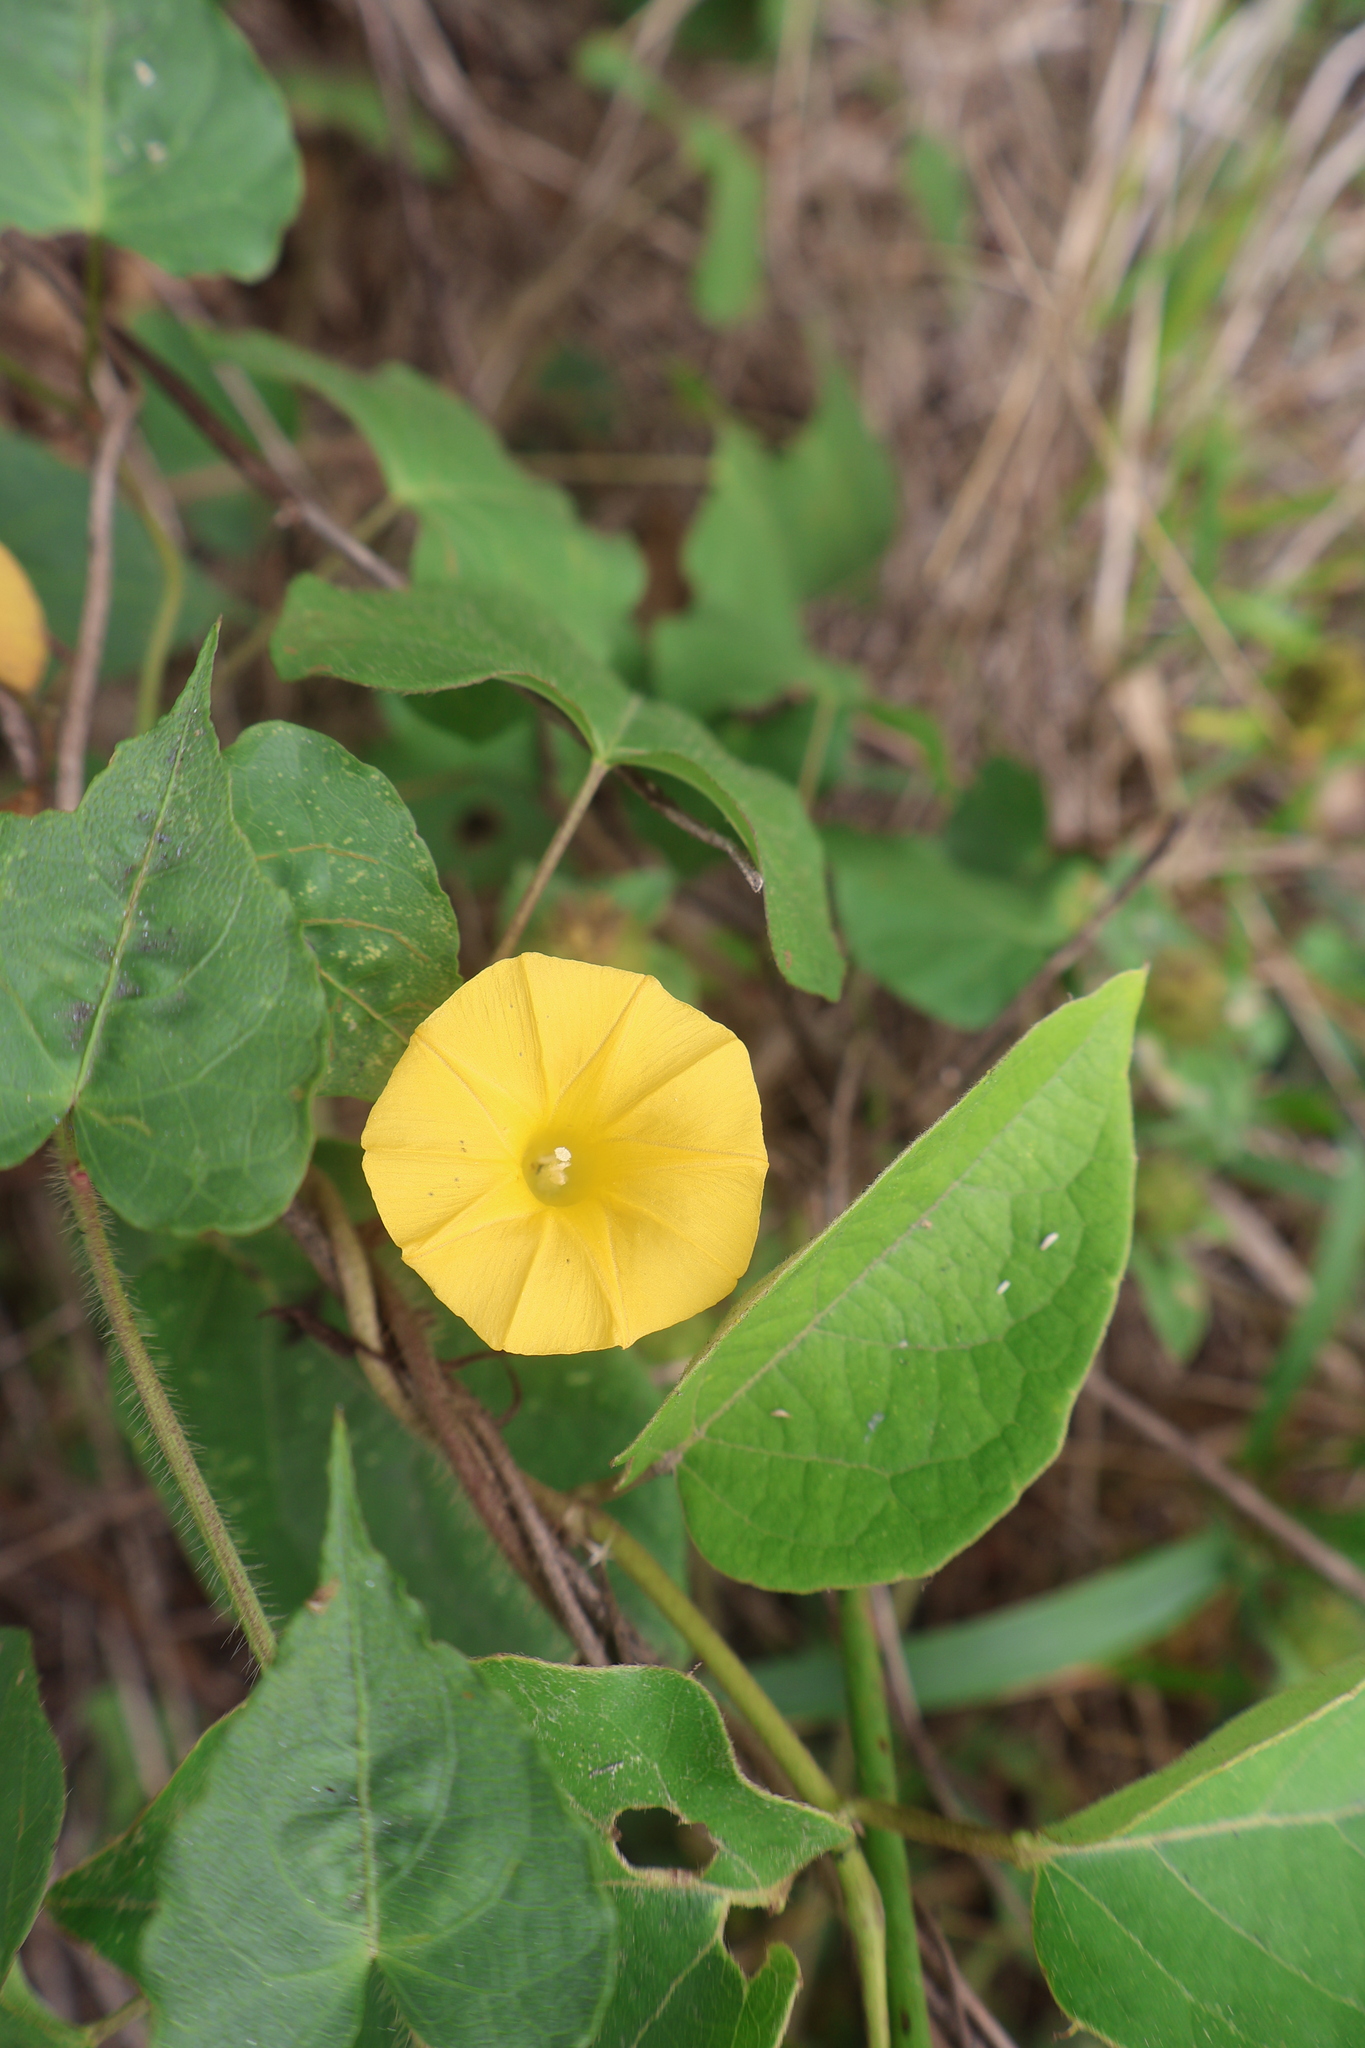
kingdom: Plantae
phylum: Tracheophyta
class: Magnoliopsida
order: Solanales
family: Convolvulaceae
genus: Ipomoea
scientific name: Ipomoea microsepala
